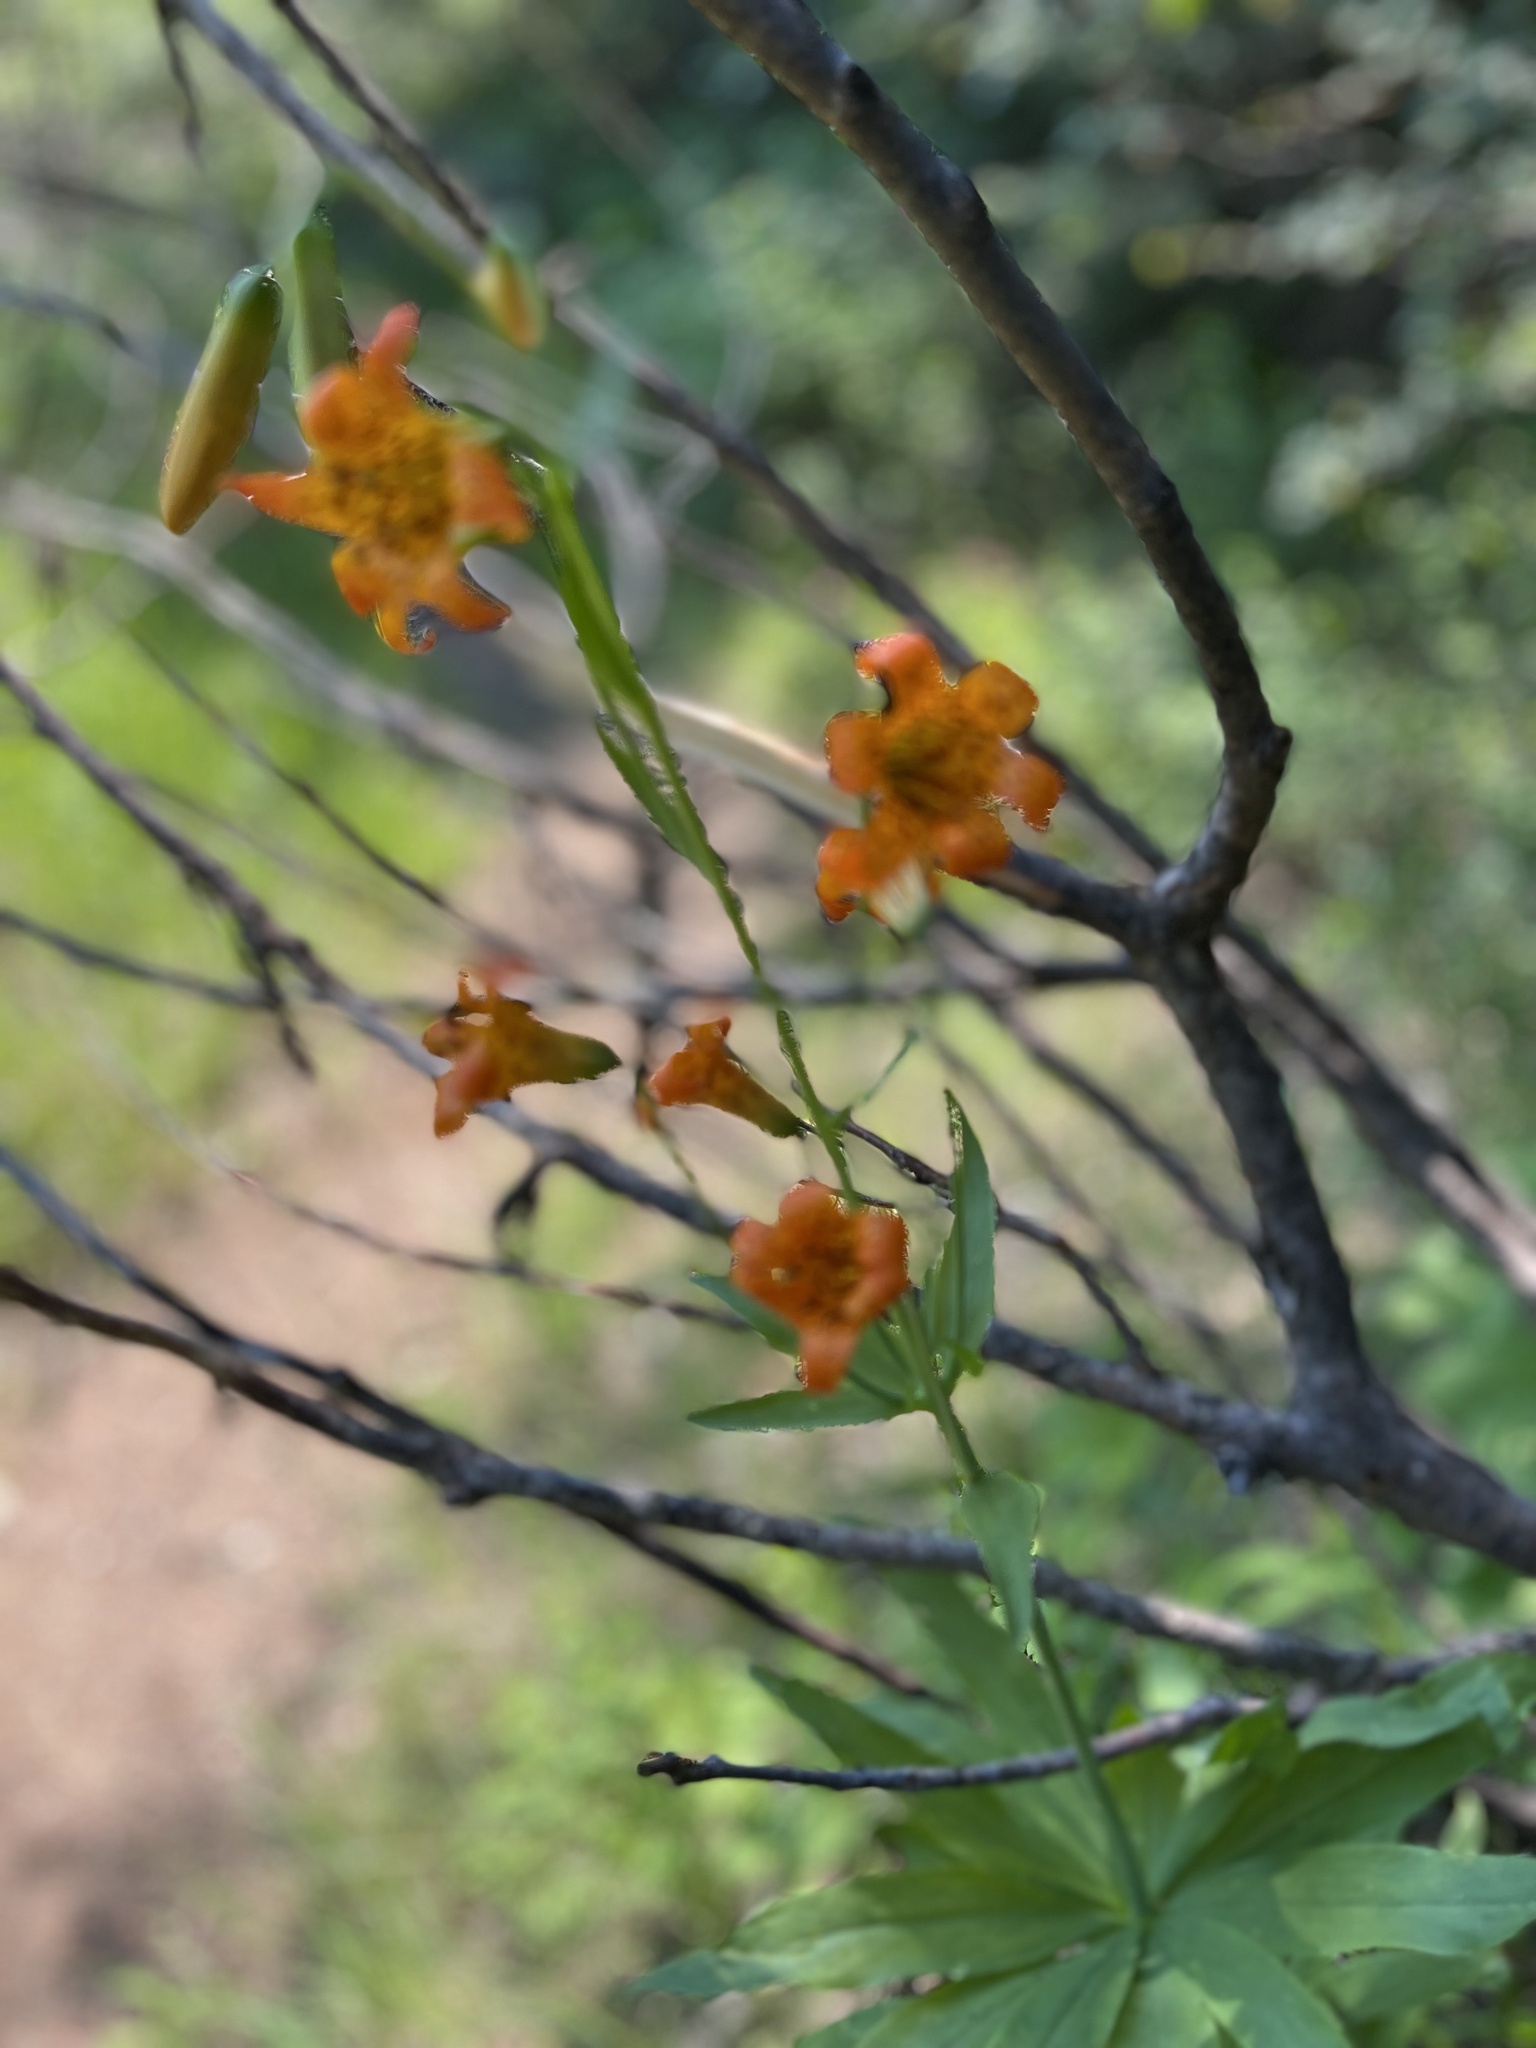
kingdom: Plantae
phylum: Tracheophyta
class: Liliopsida
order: Liliales
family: Liliaceae
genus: Lilium
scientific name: Lilium parvum
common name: Alpine lily
